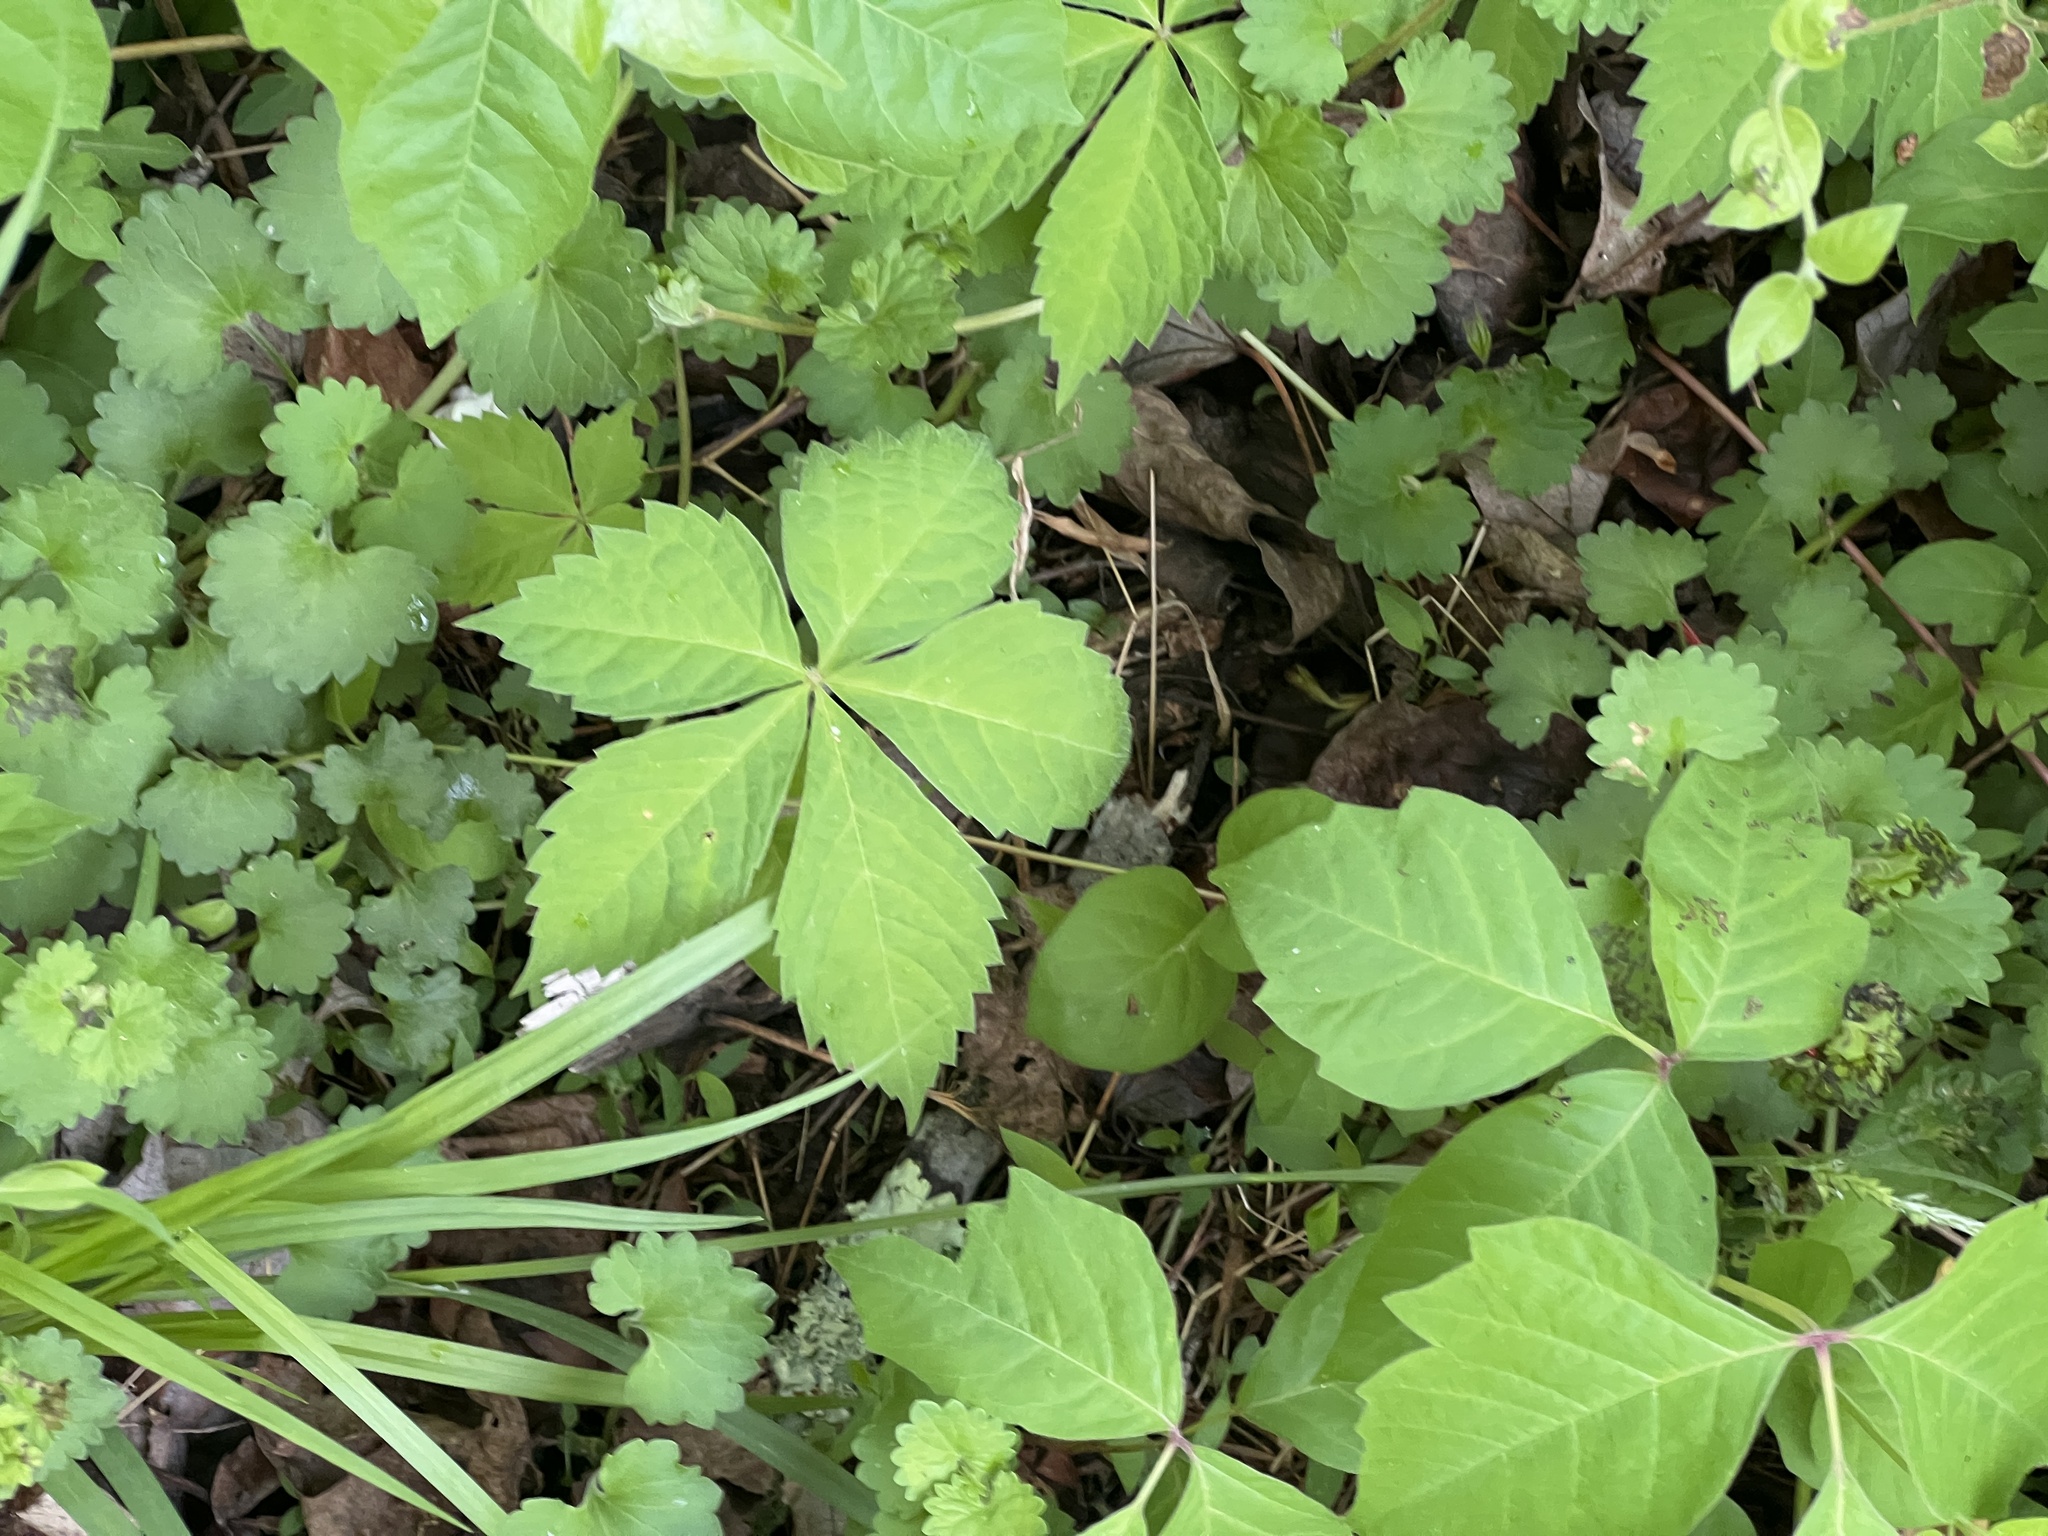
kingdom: Plantae
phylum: Tracheophyta
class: Magnoliopsida
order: Vitales
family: Vitaceae
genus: Parthenocissus
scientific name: Parthenocissus quinquefolia
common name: Virginia-creeper
